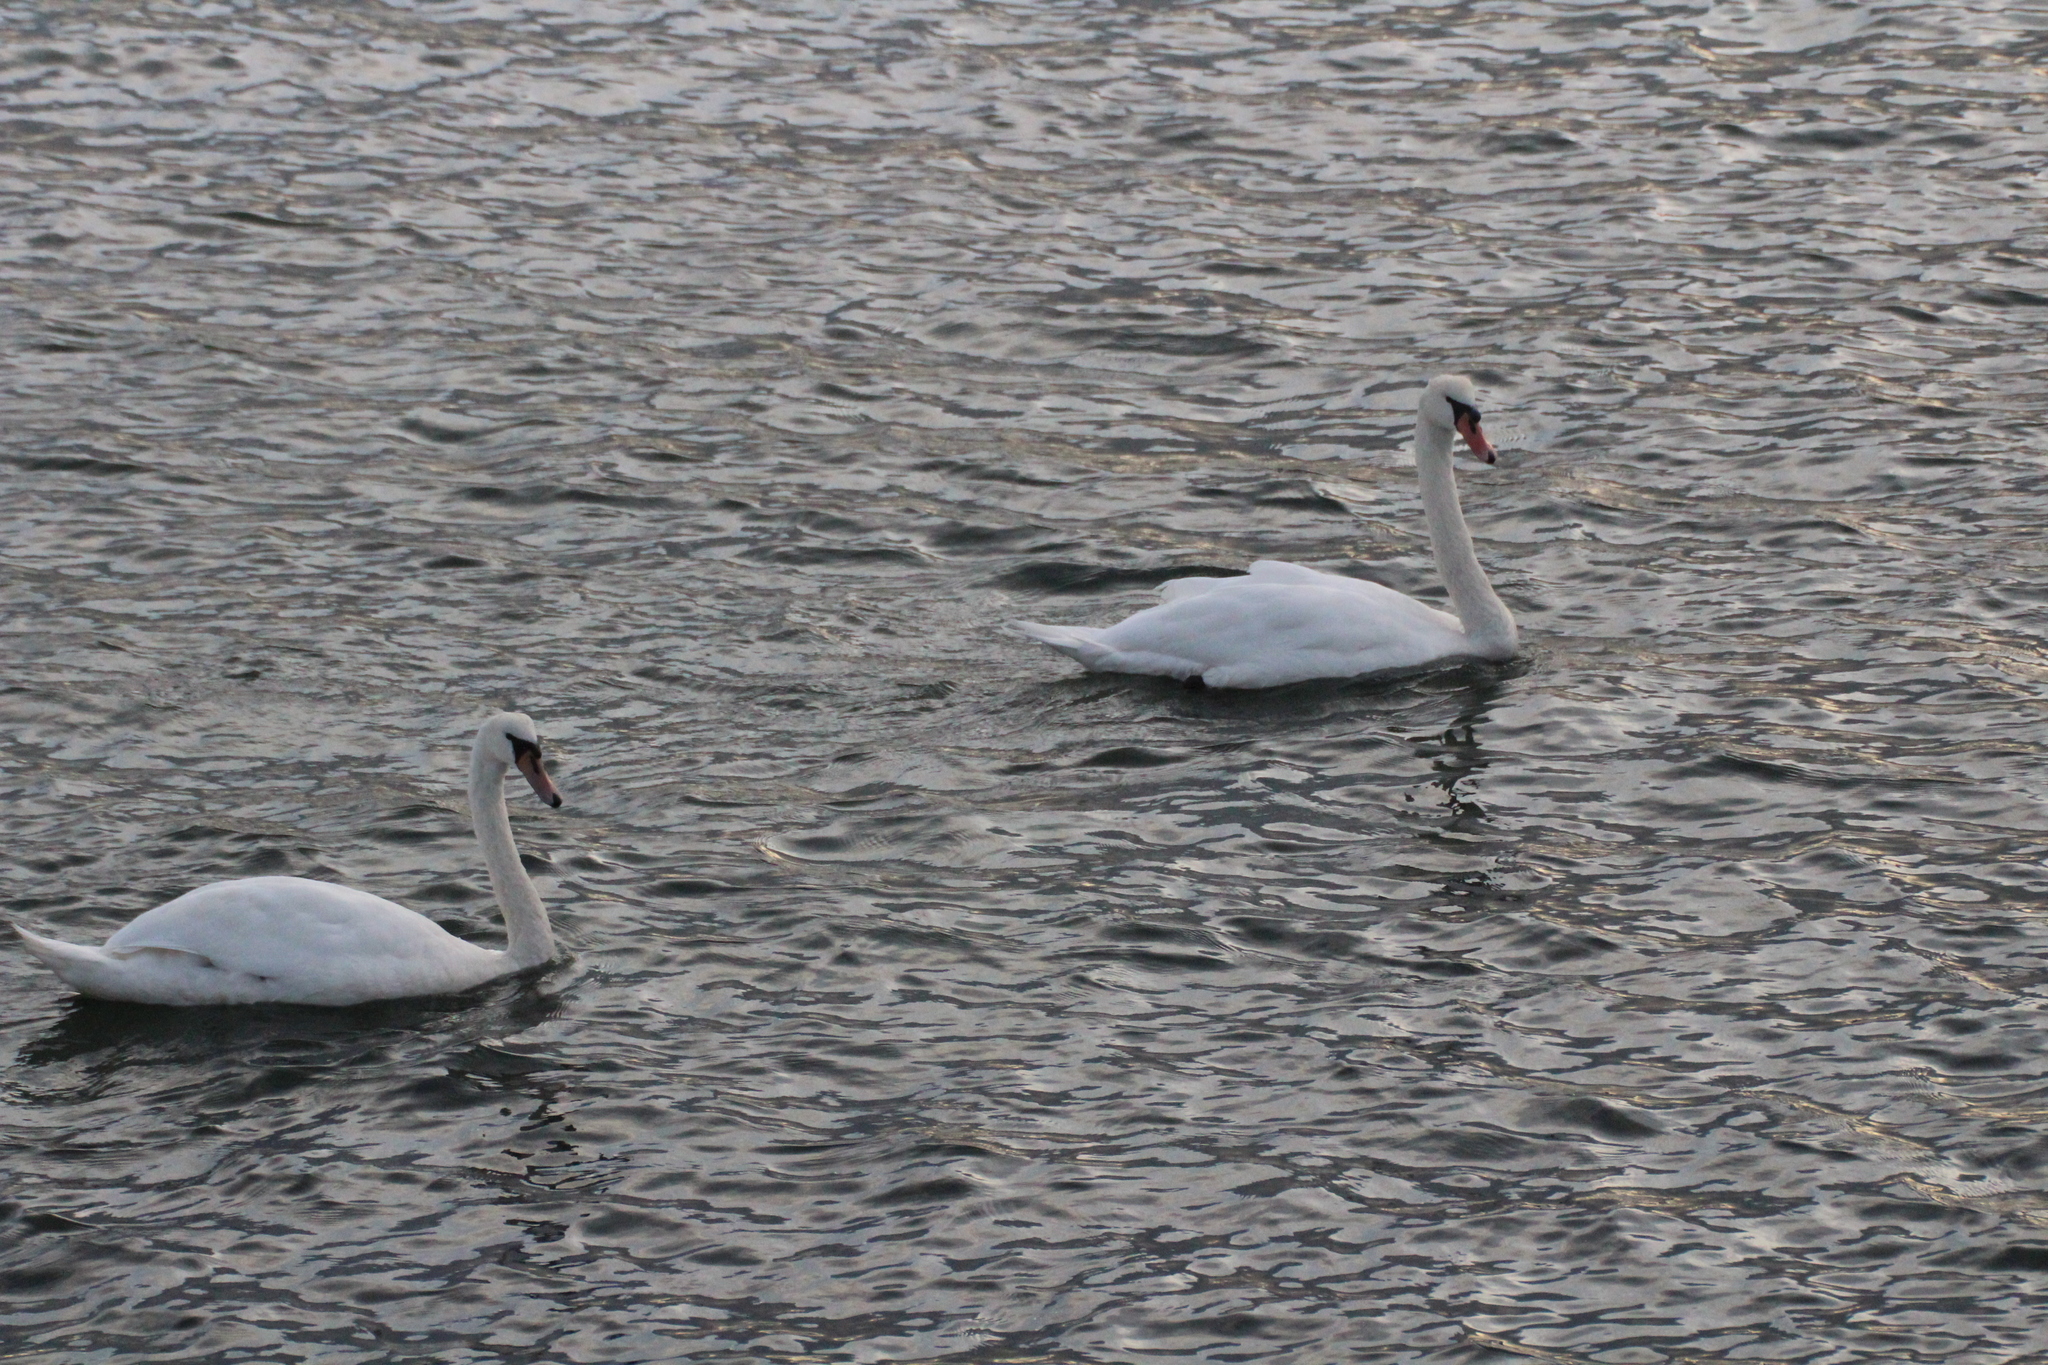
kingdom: Animalia
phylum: Chordata
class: Aves
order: Anseriformes
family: Anatidae
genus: Cygnus
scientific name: Cygnus olor
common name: Mute swan
